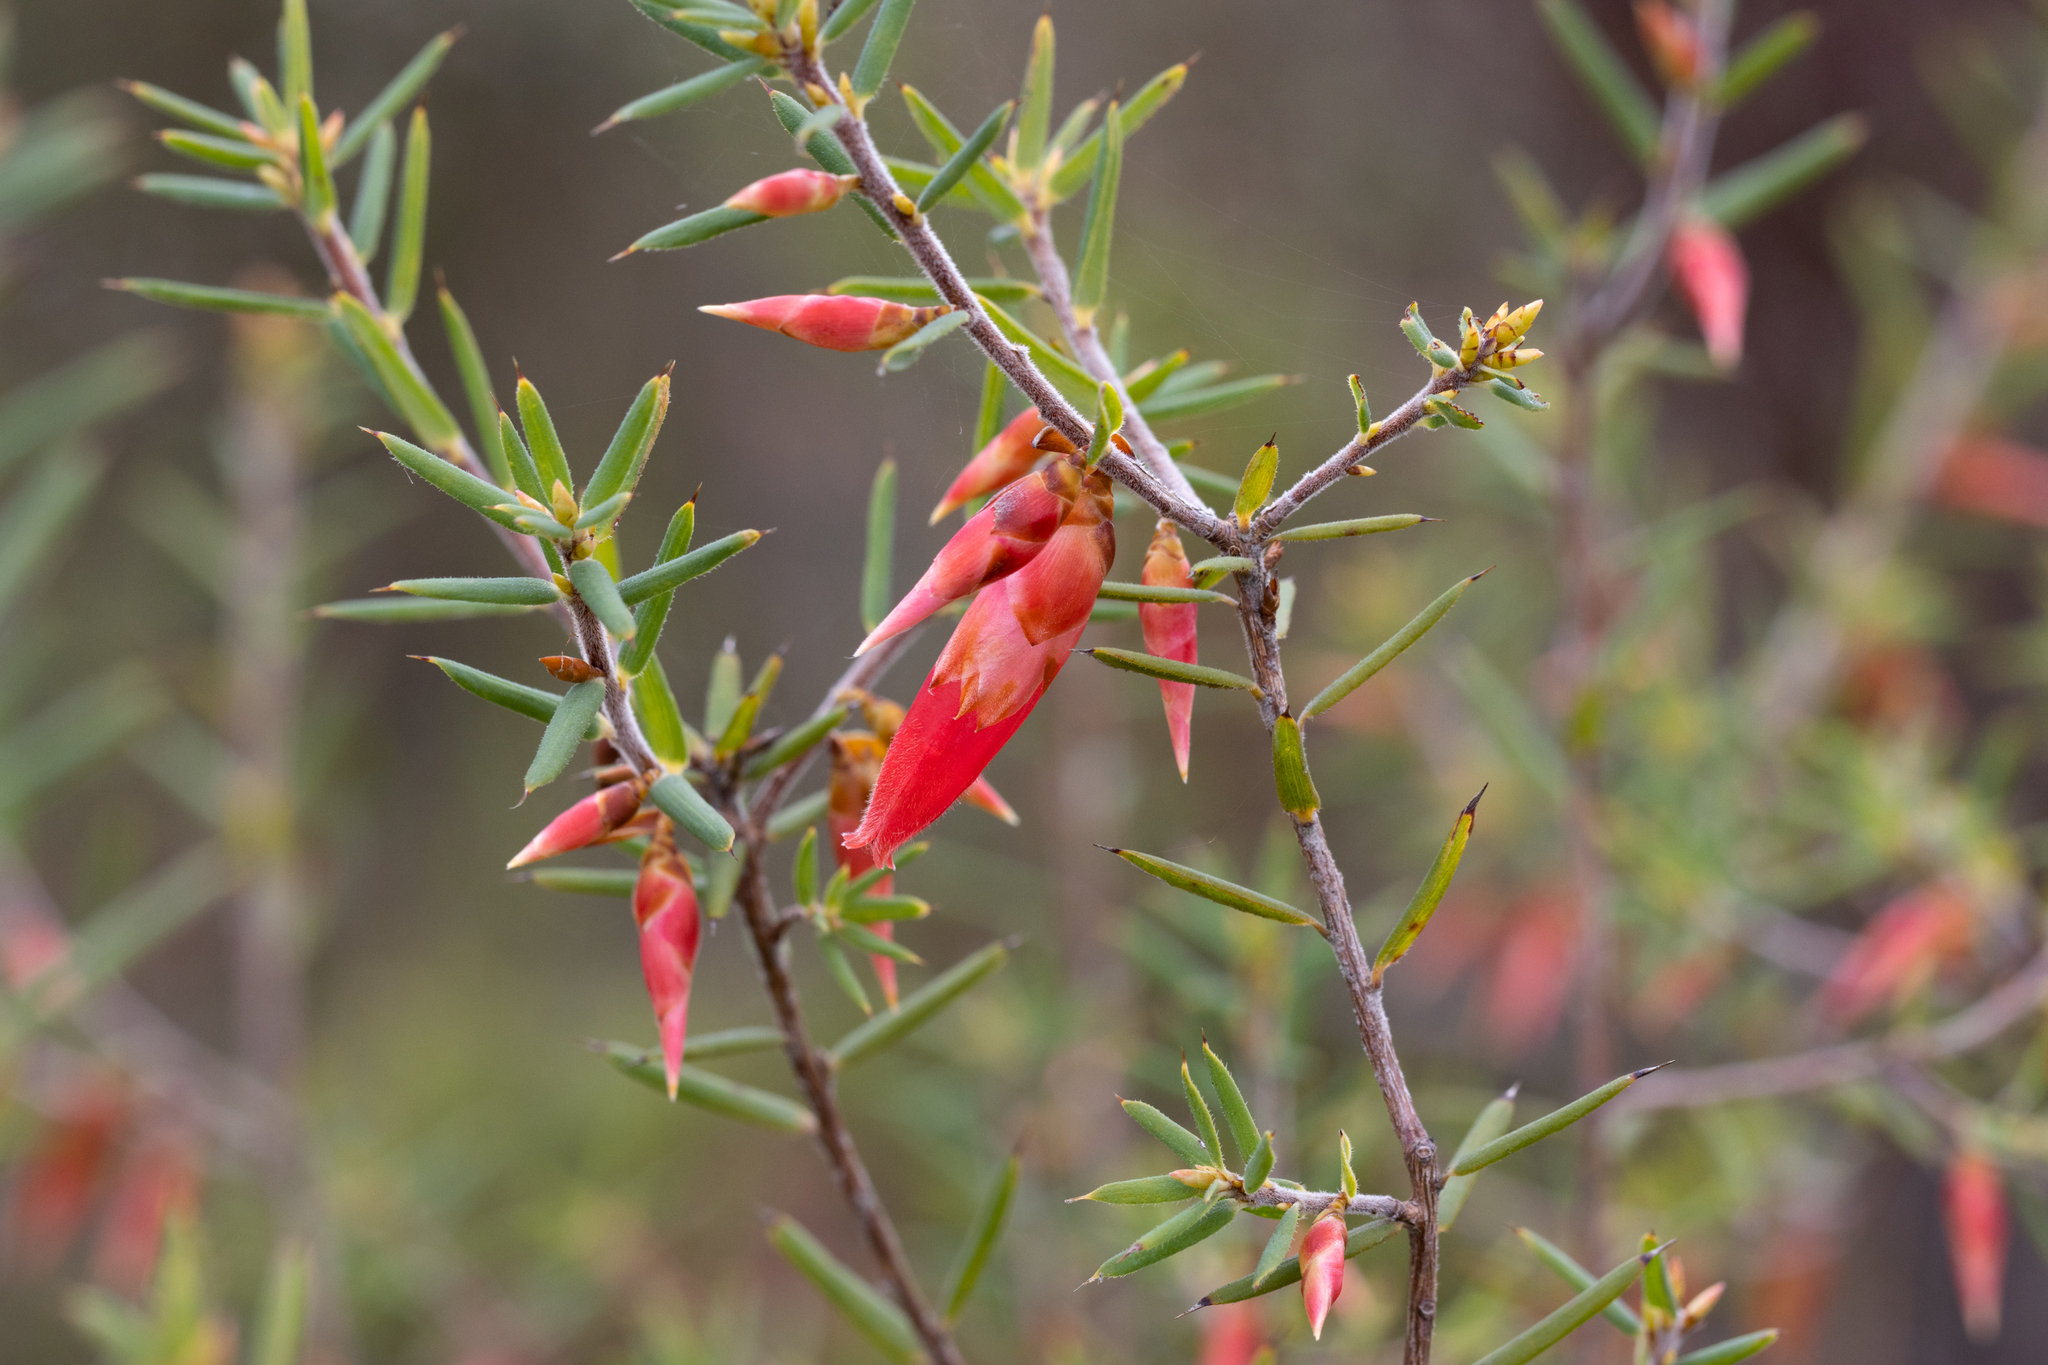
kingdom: Plantae
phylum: Tracheophyta
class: Magnoliopsida
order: Ericales
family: Ericaceae
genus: Stenanthera
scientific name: Stenanthera conostephioides
